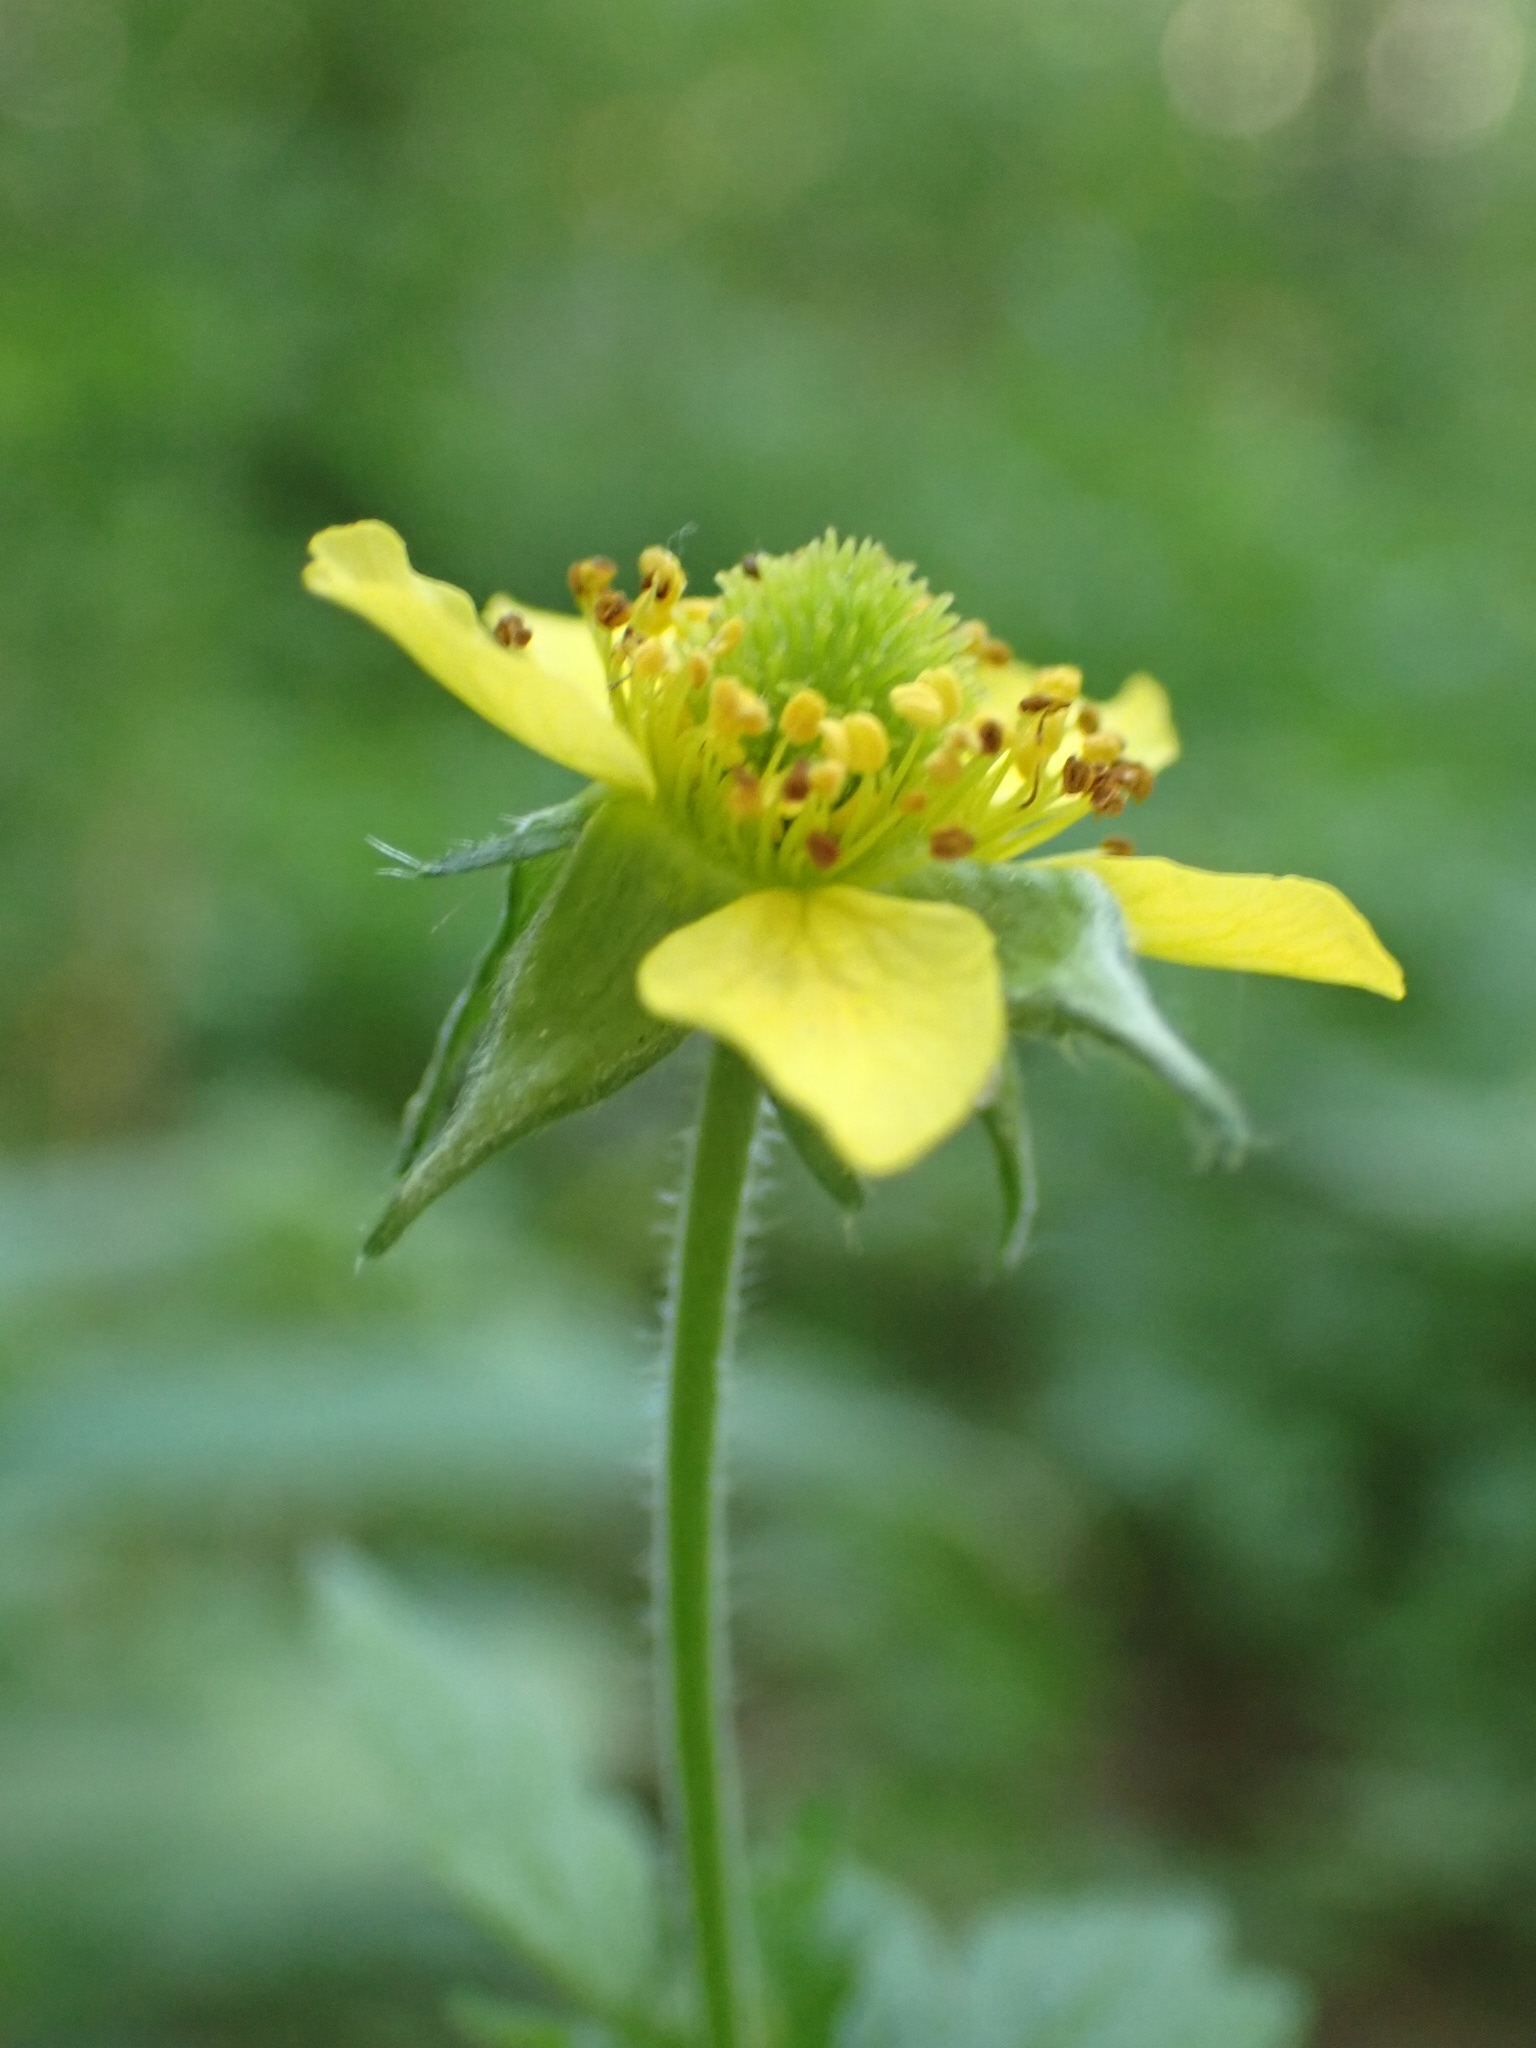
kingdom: Plantae
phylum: Tracheophyta
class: Magnoliopsida
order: Rosales
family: Rosaceae
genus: Geum
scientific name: Geum urbanum
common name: Wood avens
